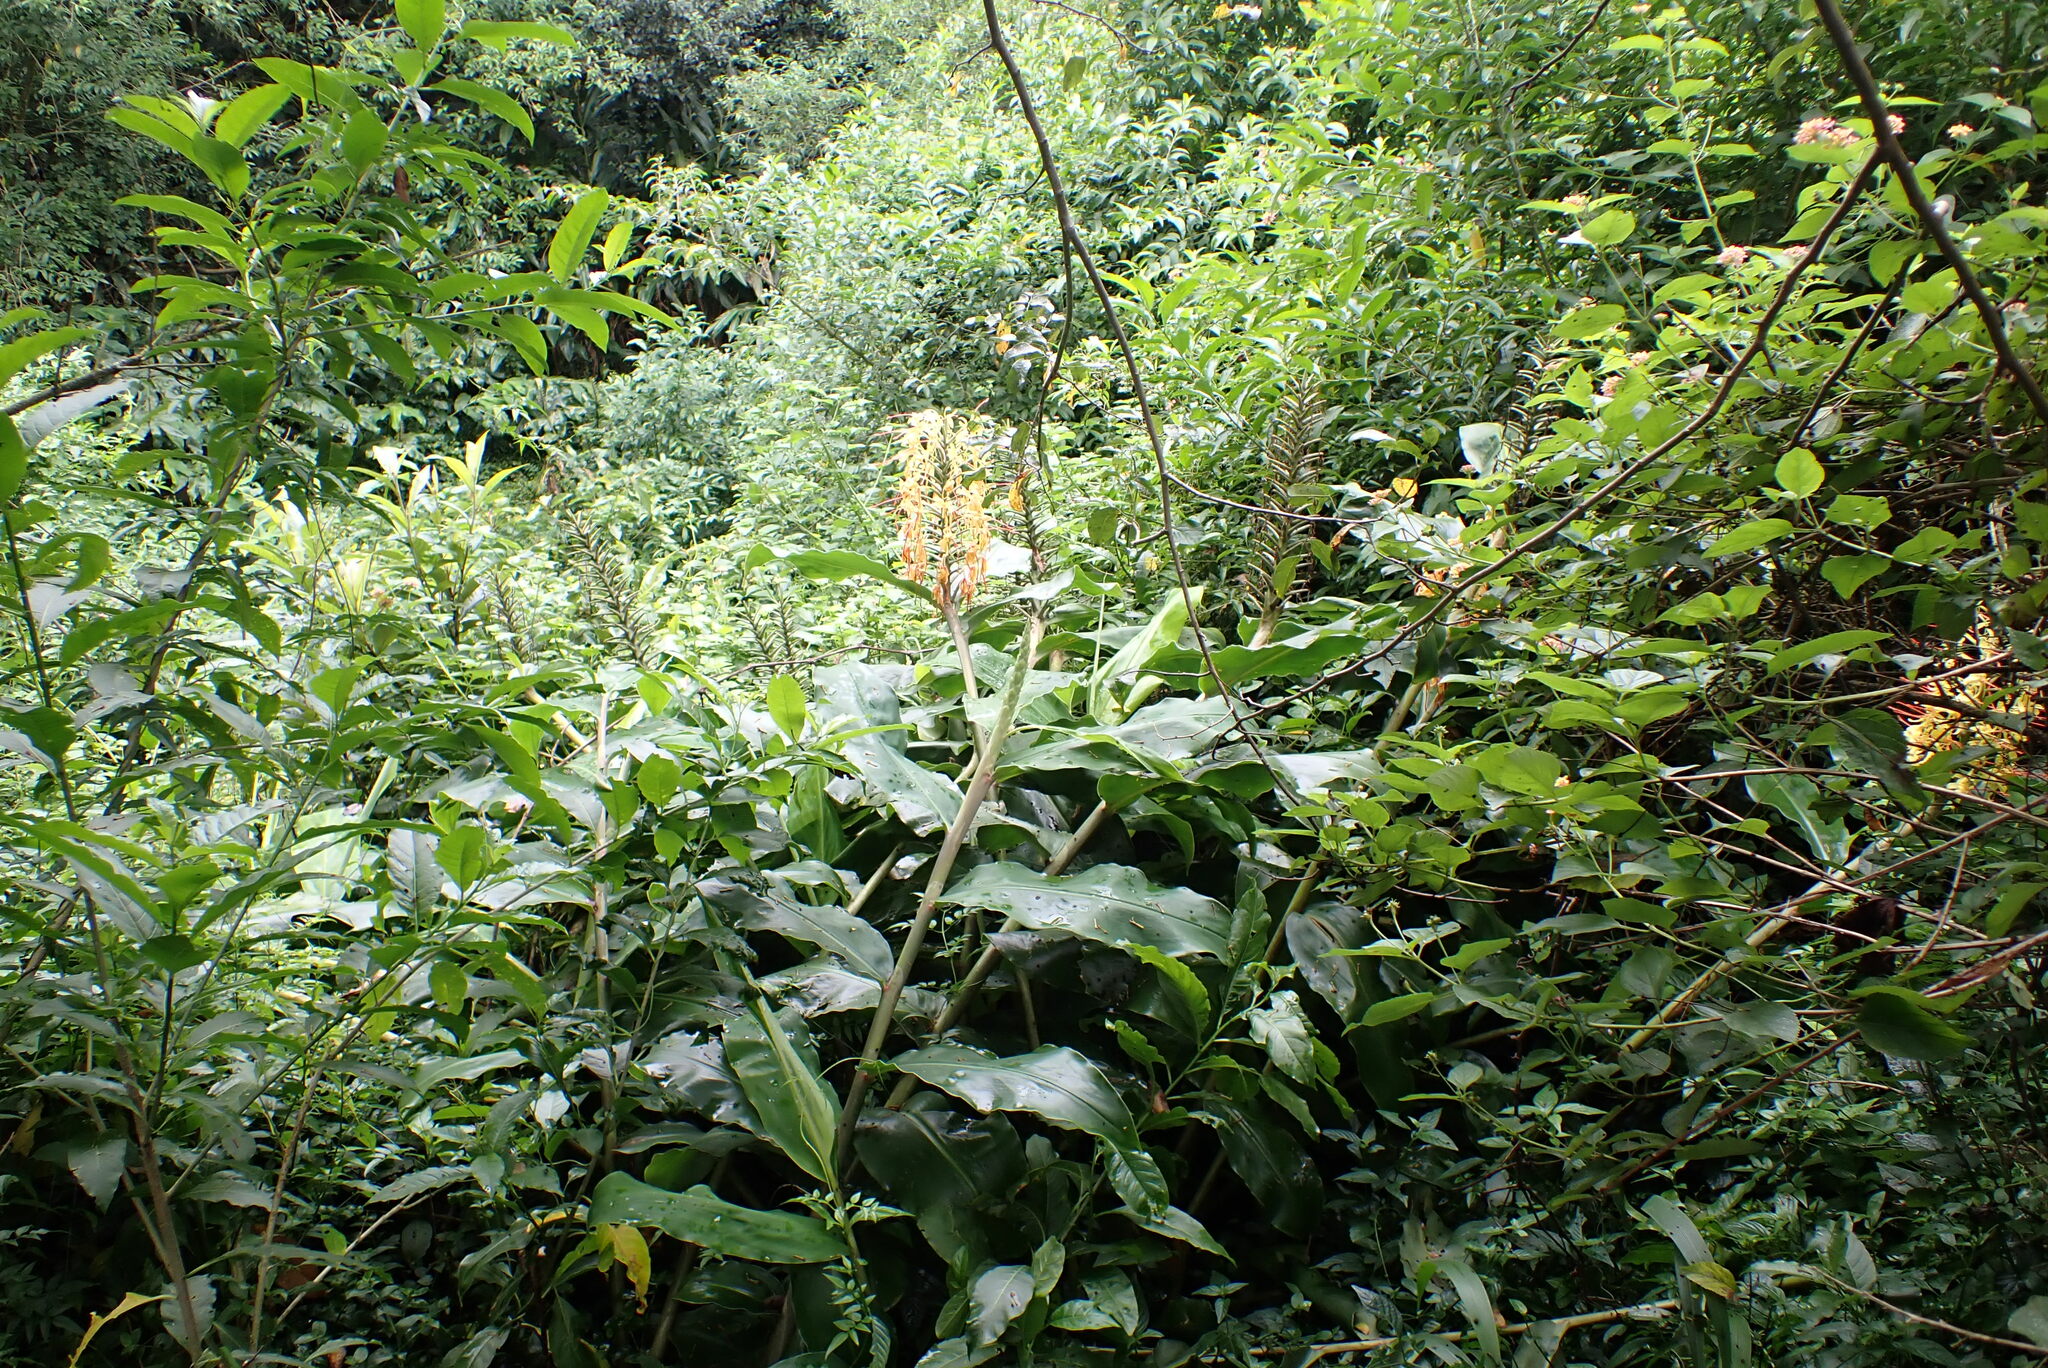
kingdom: Plantae
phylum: Tracheophyta
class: Liliopsida
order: Zingiberales
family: Zingiberaceae
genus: Hedychium
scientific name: Hedychium gardnerianum
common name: Himalayan ginger
